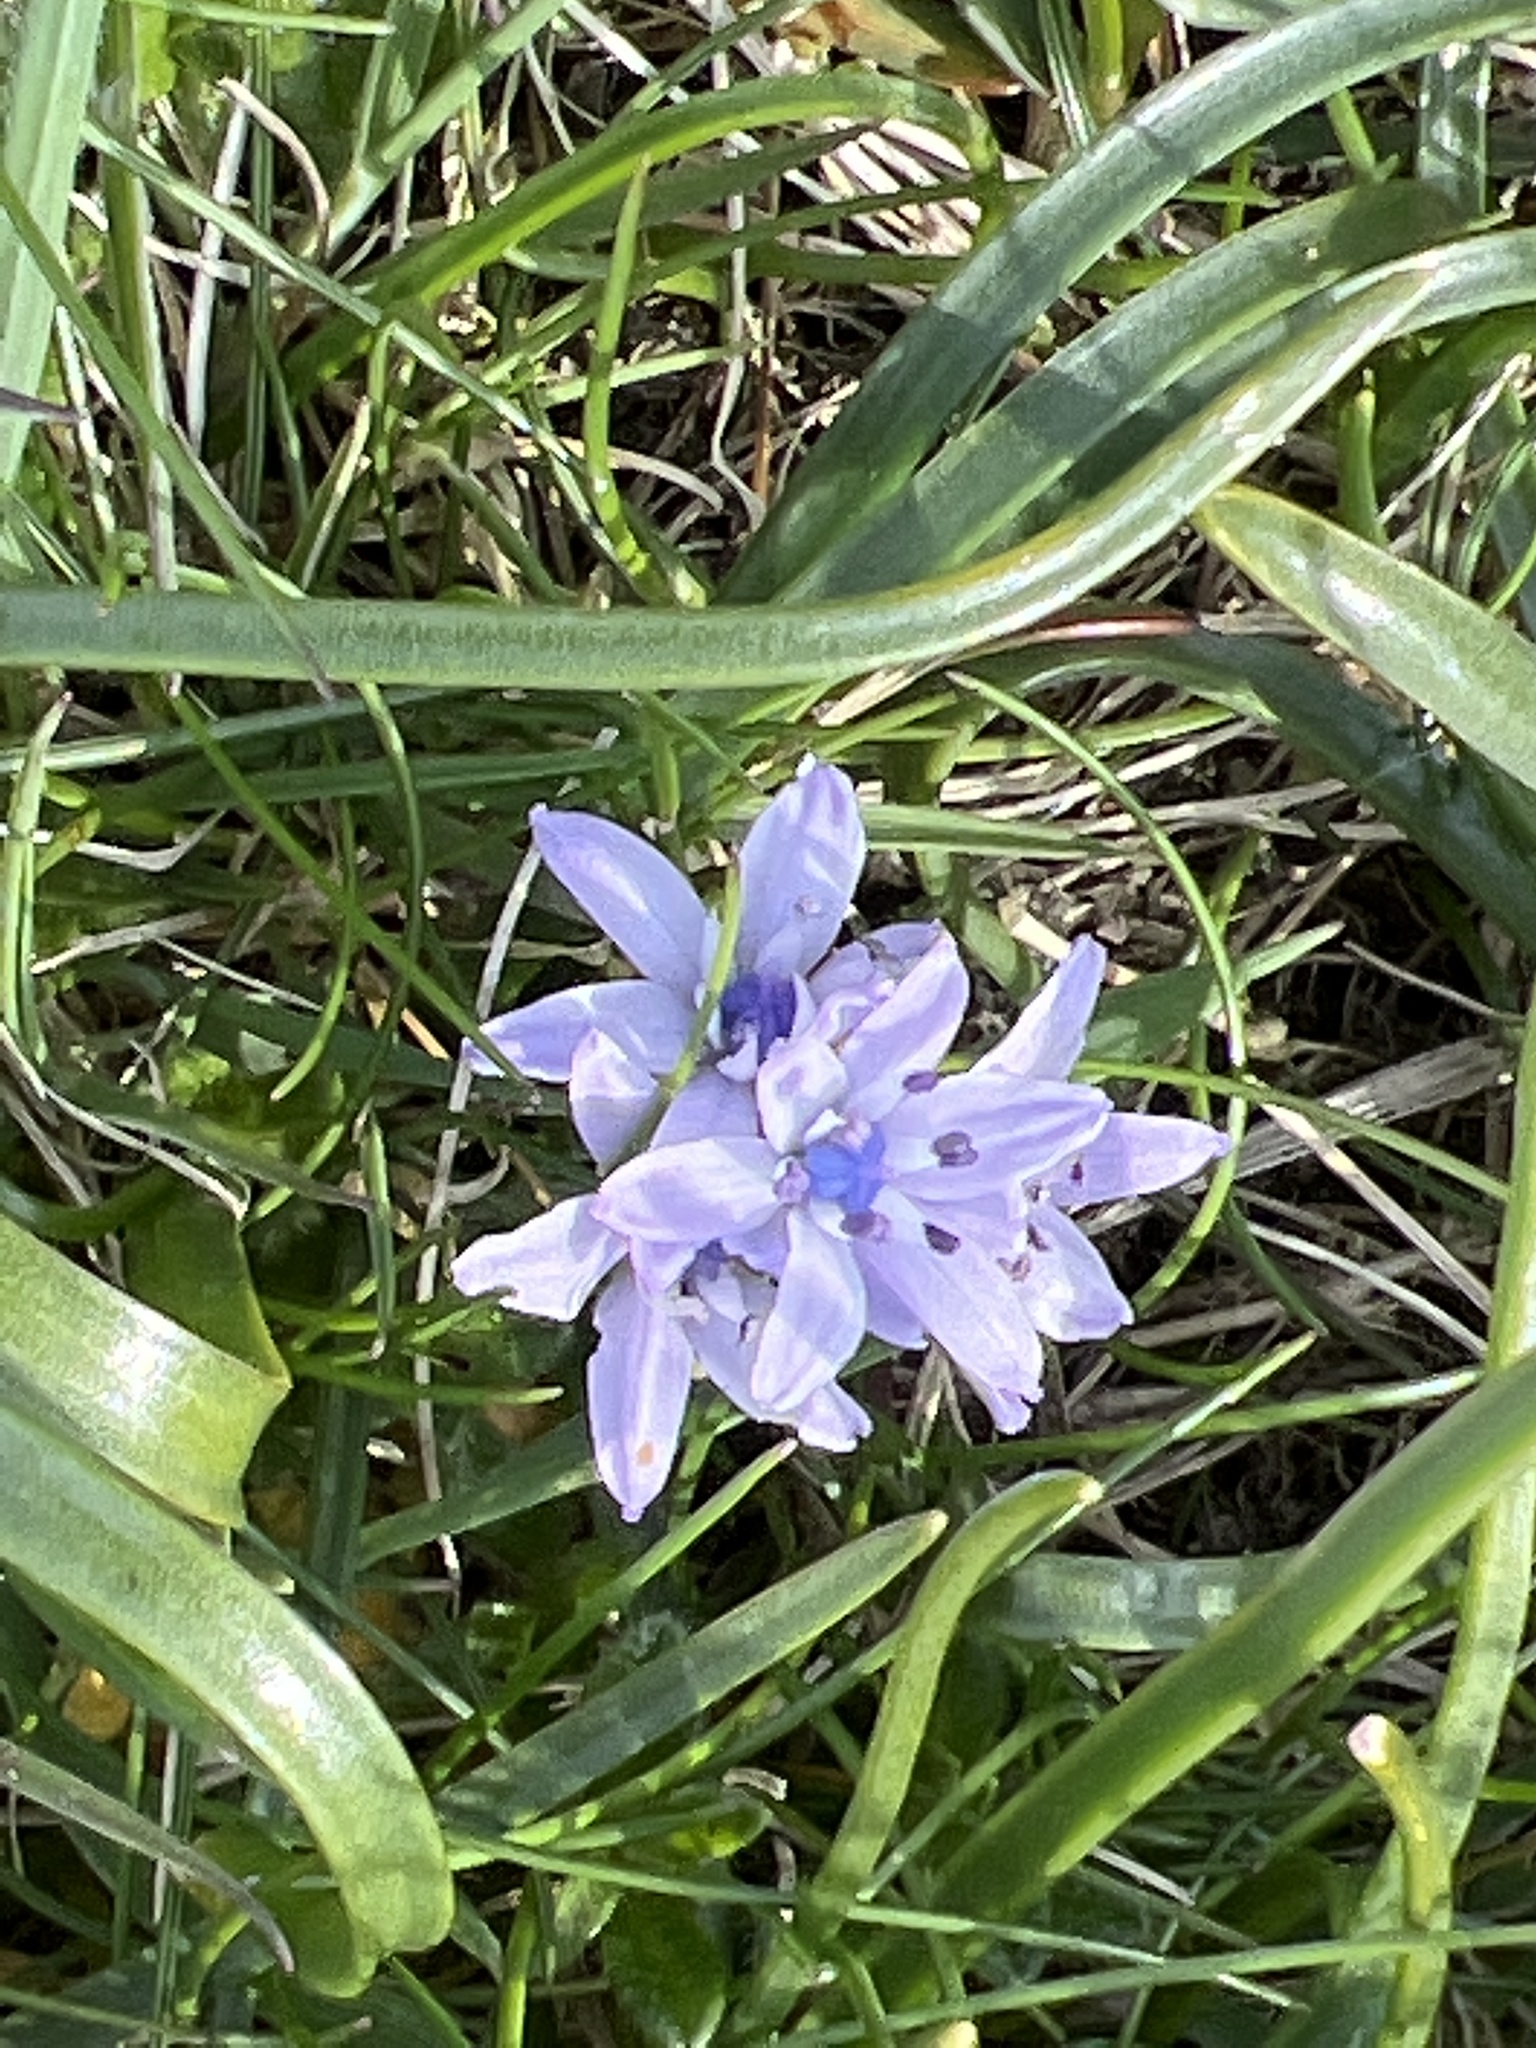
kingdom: Plantae
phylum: Tracheophyta
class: Liliopsida
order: Asparagales
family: Asparagaceae
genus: Scilla
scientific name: Scilla verna
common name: Spring squill
